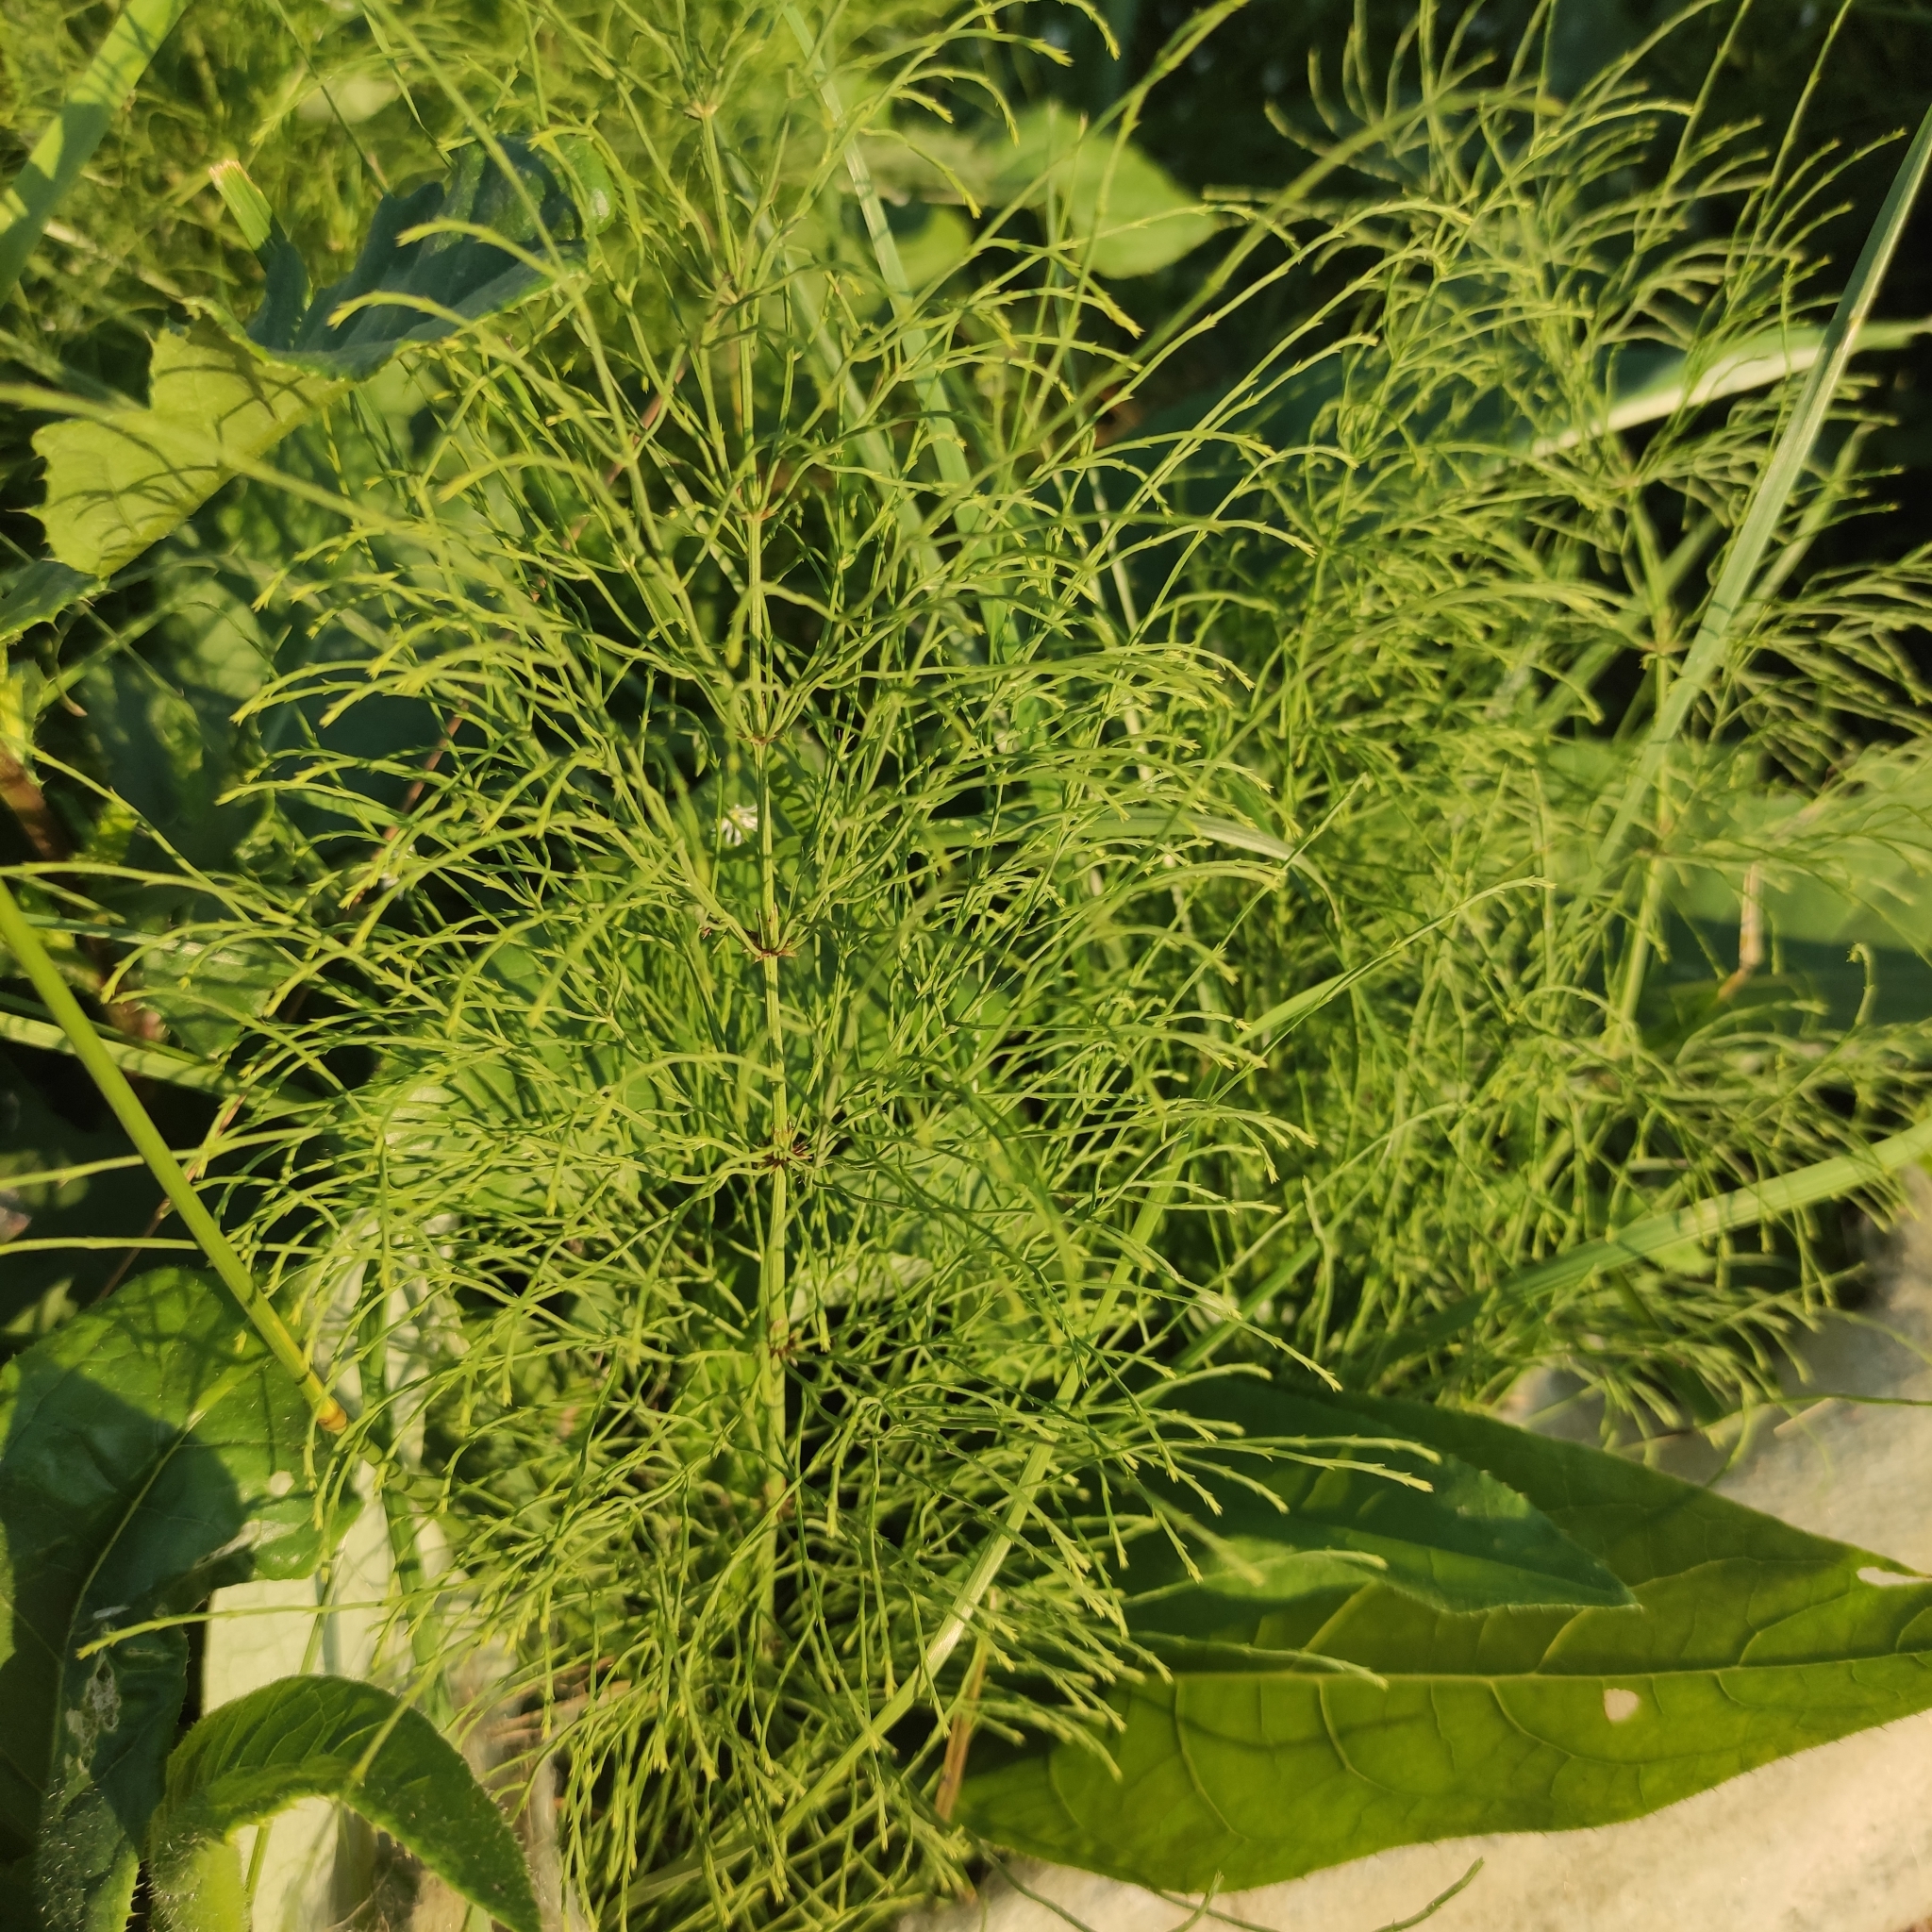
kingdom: Plantae
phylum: Tracheophyta
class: Polypodiopsida
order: Equisetales
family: Equisetaceae
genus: Equisetum
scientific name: Equisetum sylvaticum
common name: Wood horsetail
